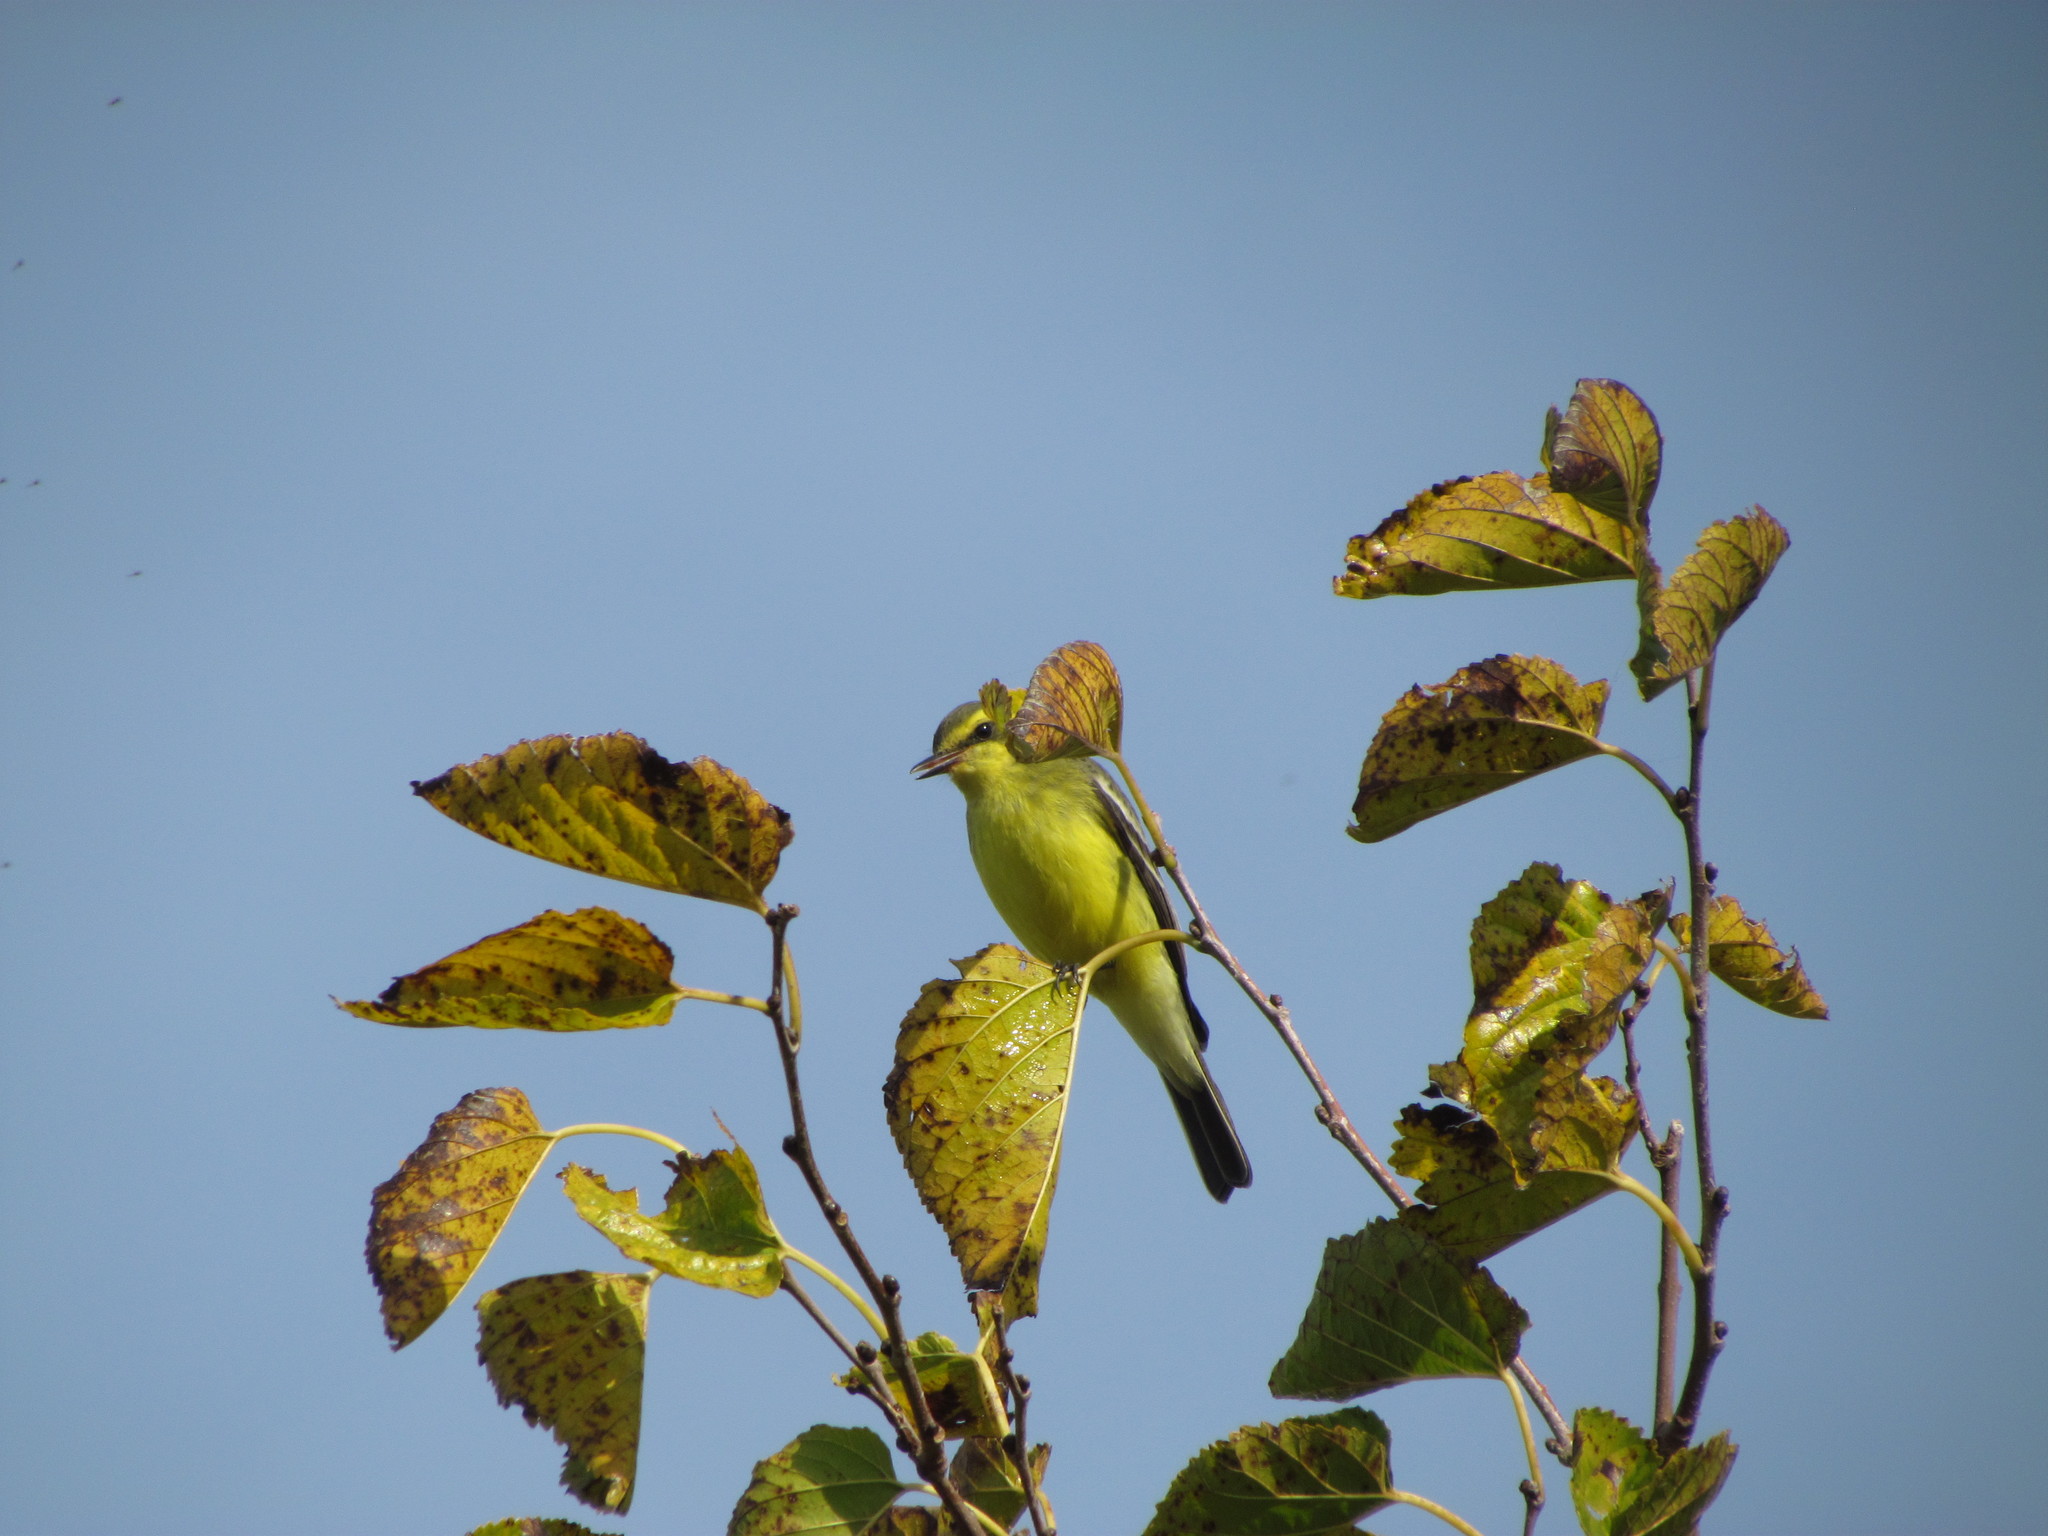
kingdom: Animalia
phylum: Chordata
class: Aves
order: Passeriformes
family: Tyrannidae
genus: Satrapa
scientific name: Satrapa icterophrys
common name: Yellow-browed tyrant
